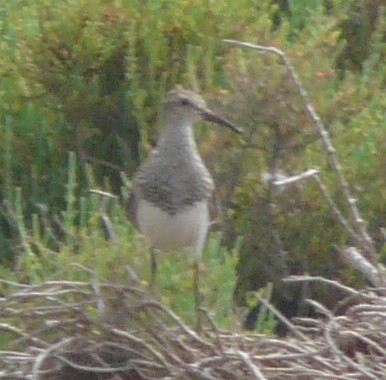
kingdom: Animalia
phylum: Chordata
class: Aves
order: Charadriiformes
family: Scolopacidae
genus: Calidris
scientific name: Calidris melanotos
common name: Pectoral sandpiper
